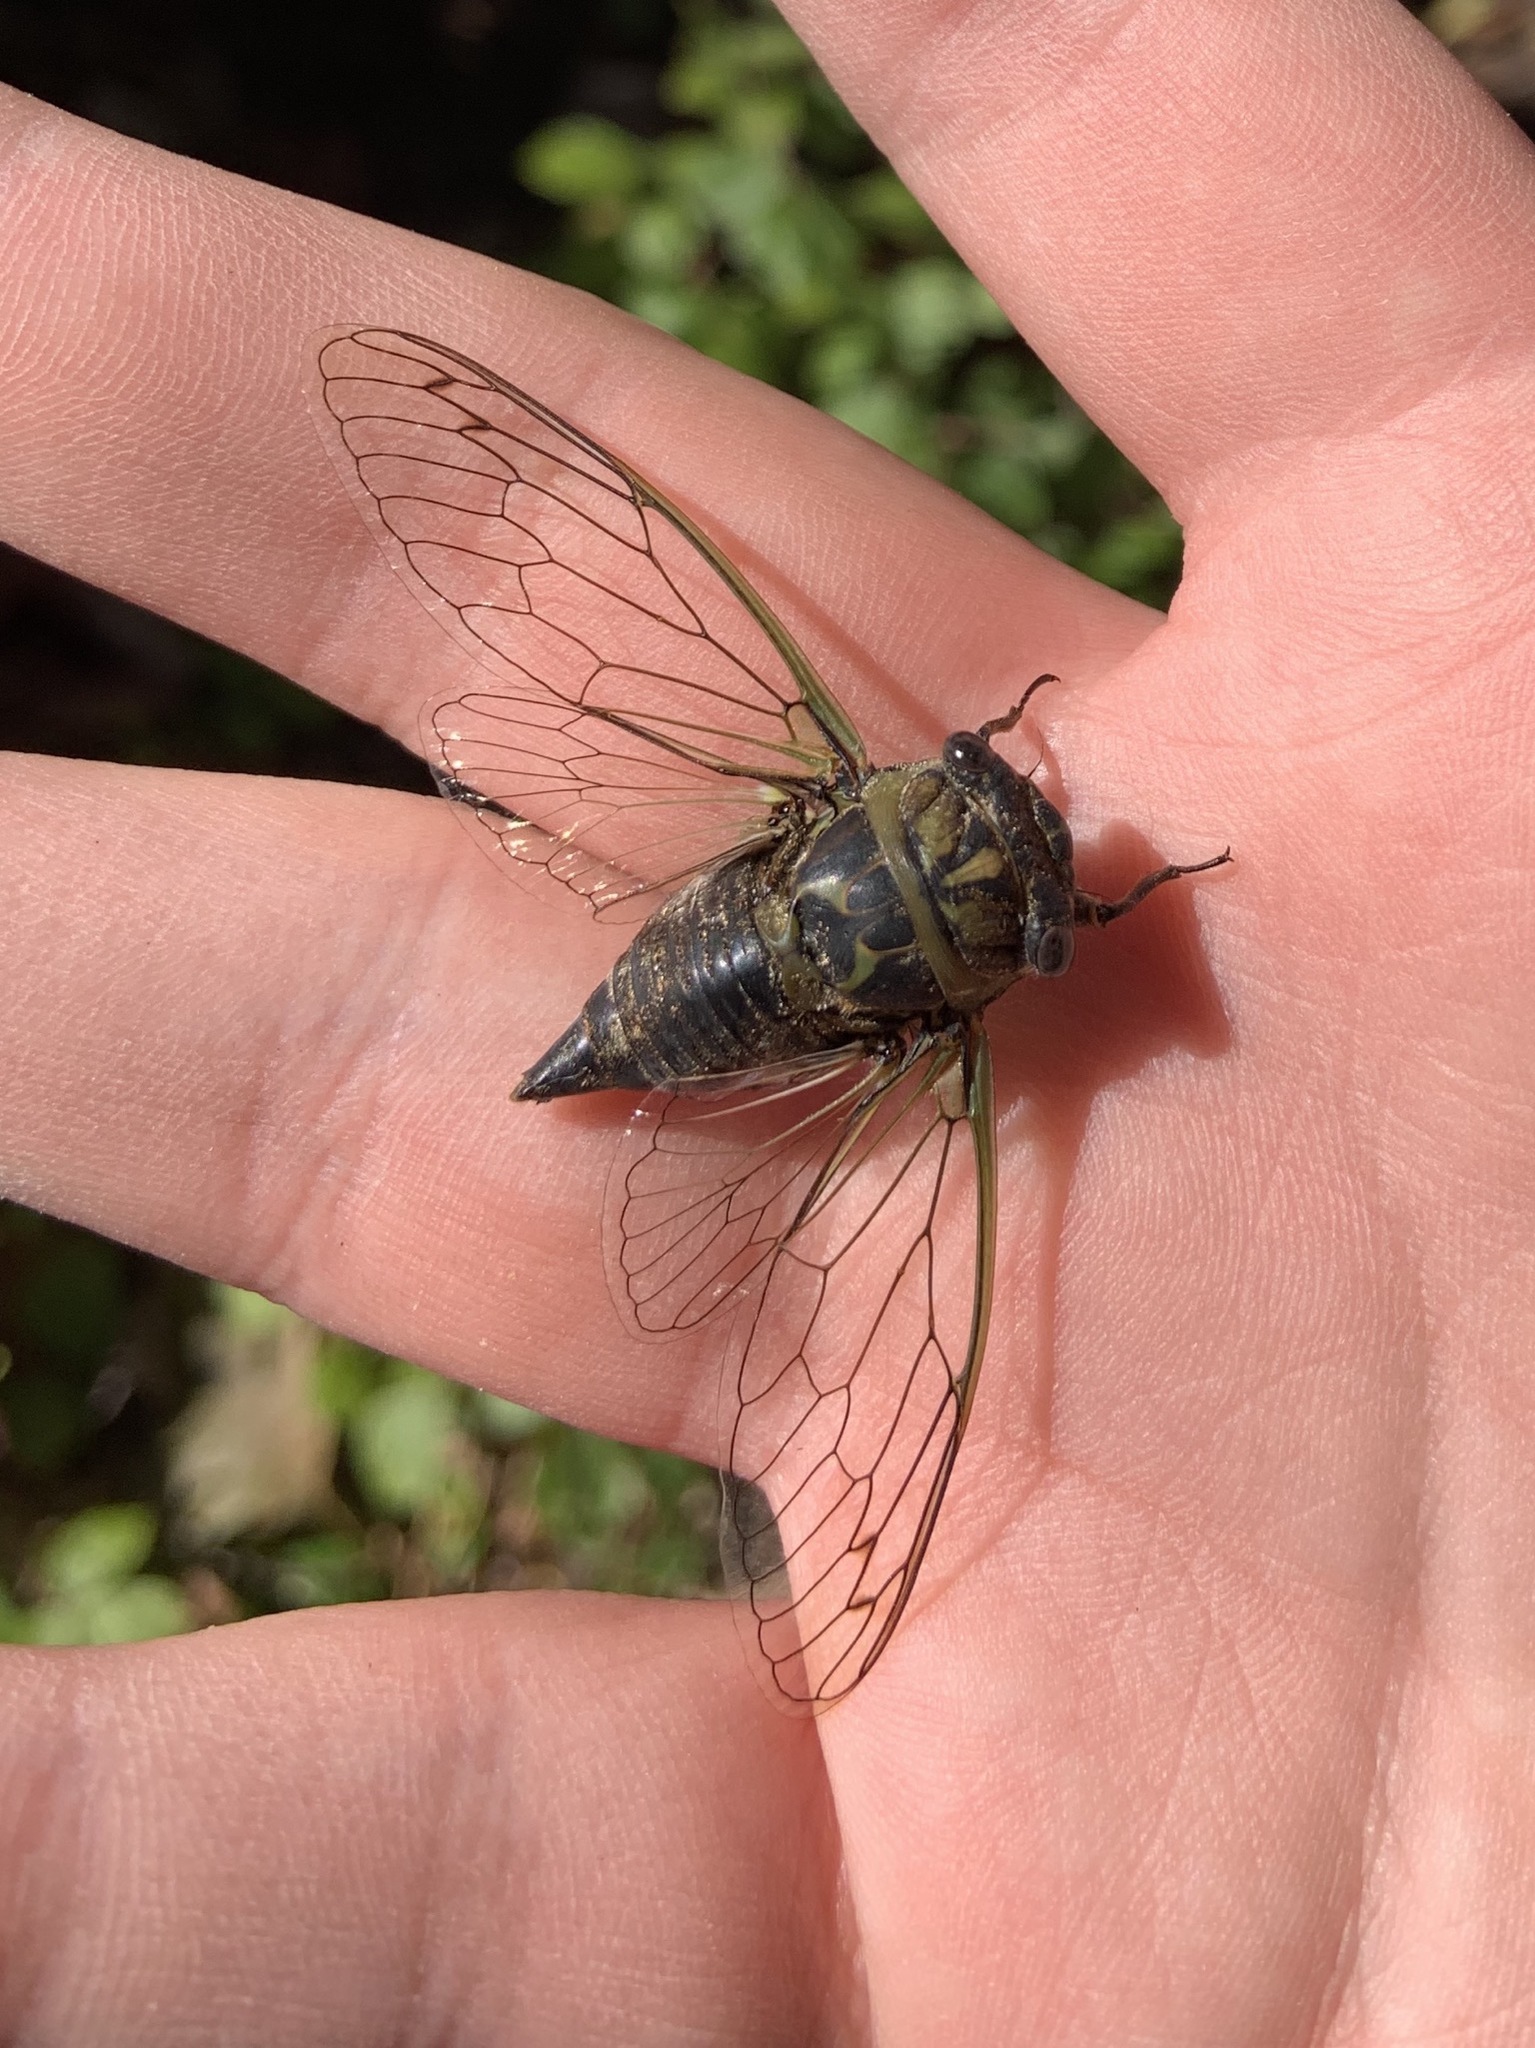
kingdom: Animalia
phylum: Arthropoda
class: Insecta
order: Hemiptera
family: Cicadidae
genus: Neotibicen
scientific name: Neotibicen canicularis
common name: God-day cicada
